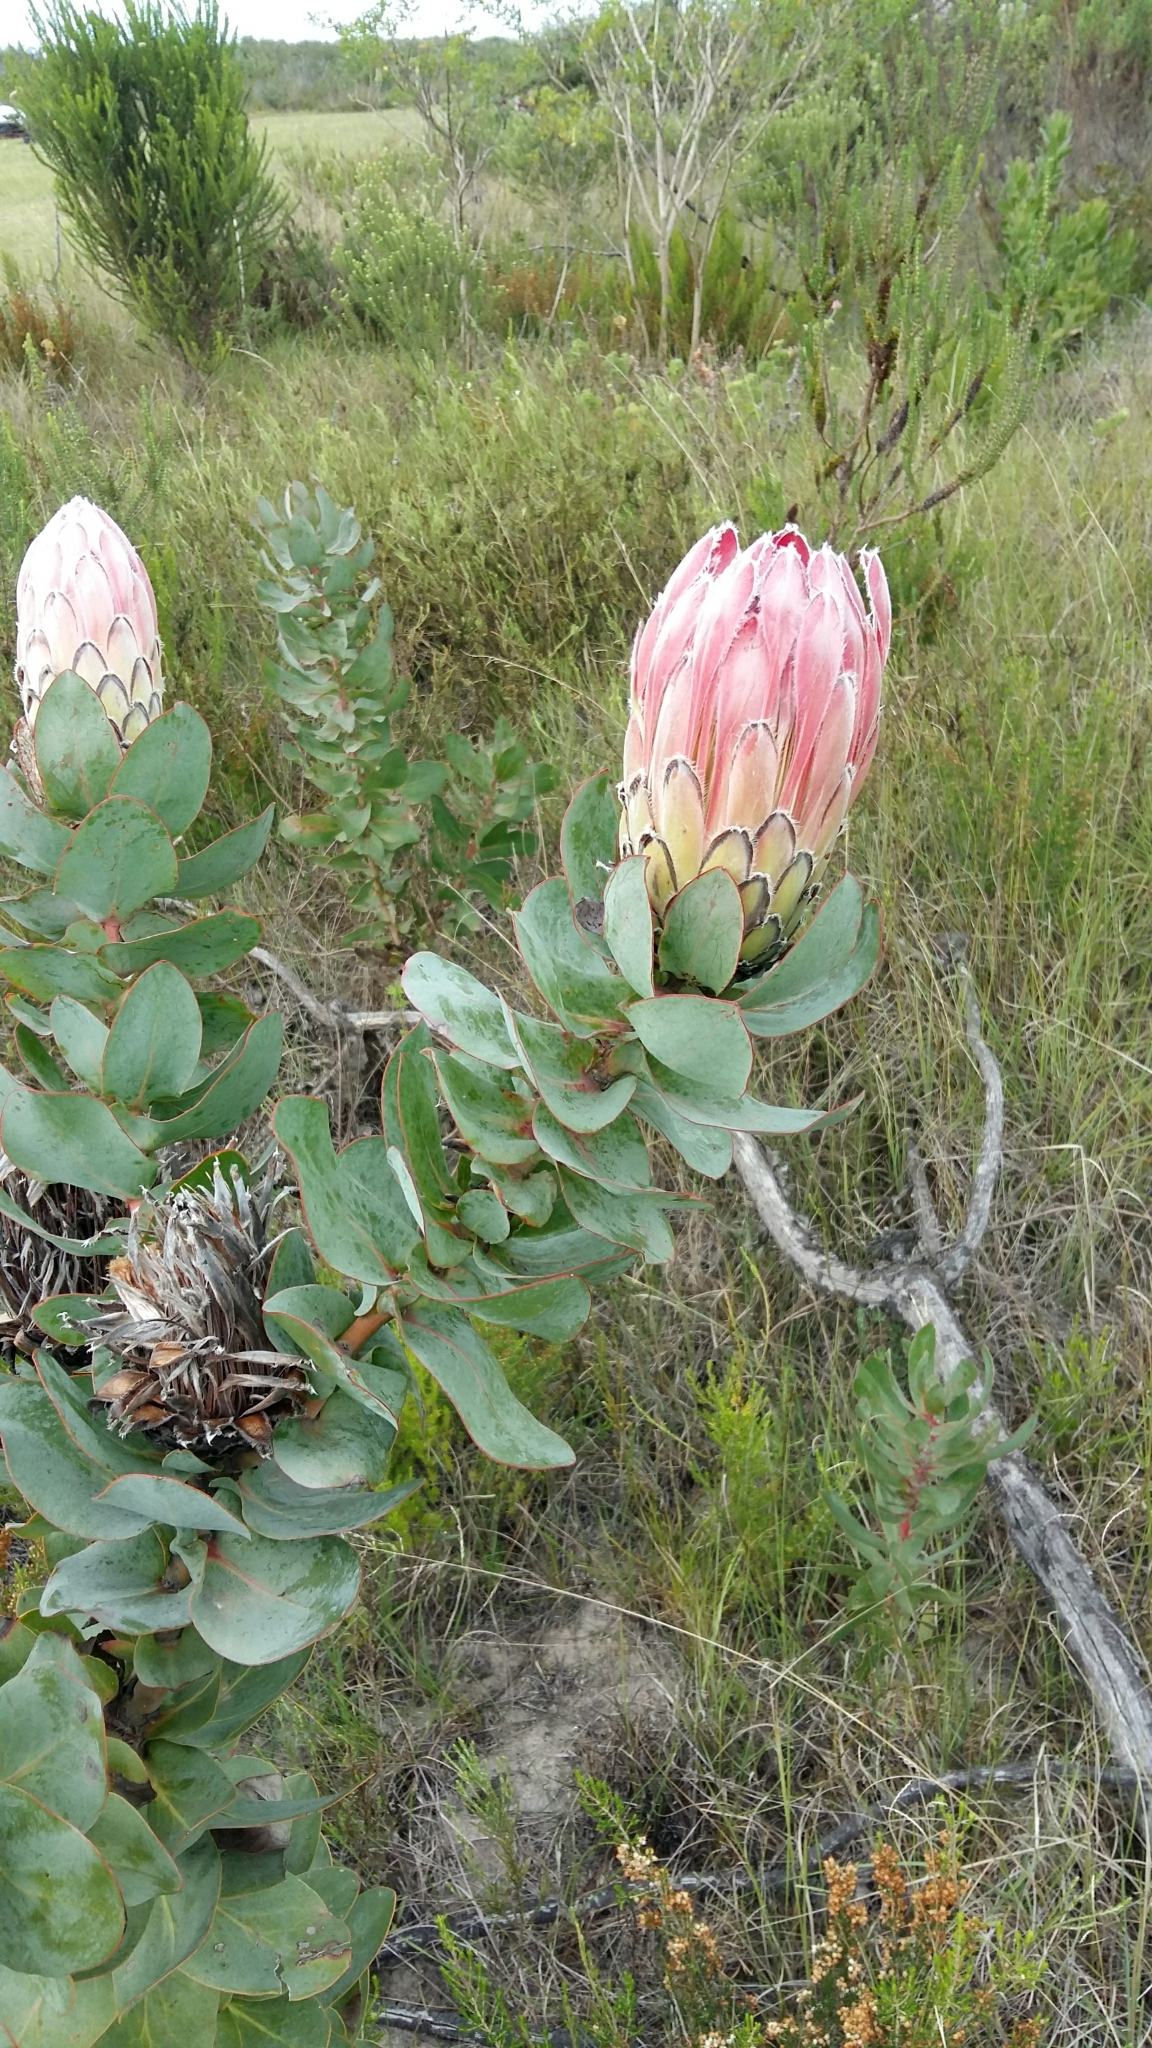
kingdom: Plantae
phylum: Tracheophyta
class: Magnoliopsida
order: Proteales
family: Proteaceae
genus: Protea
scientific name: Protea eximia
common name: Broad-leaved sugarbush
